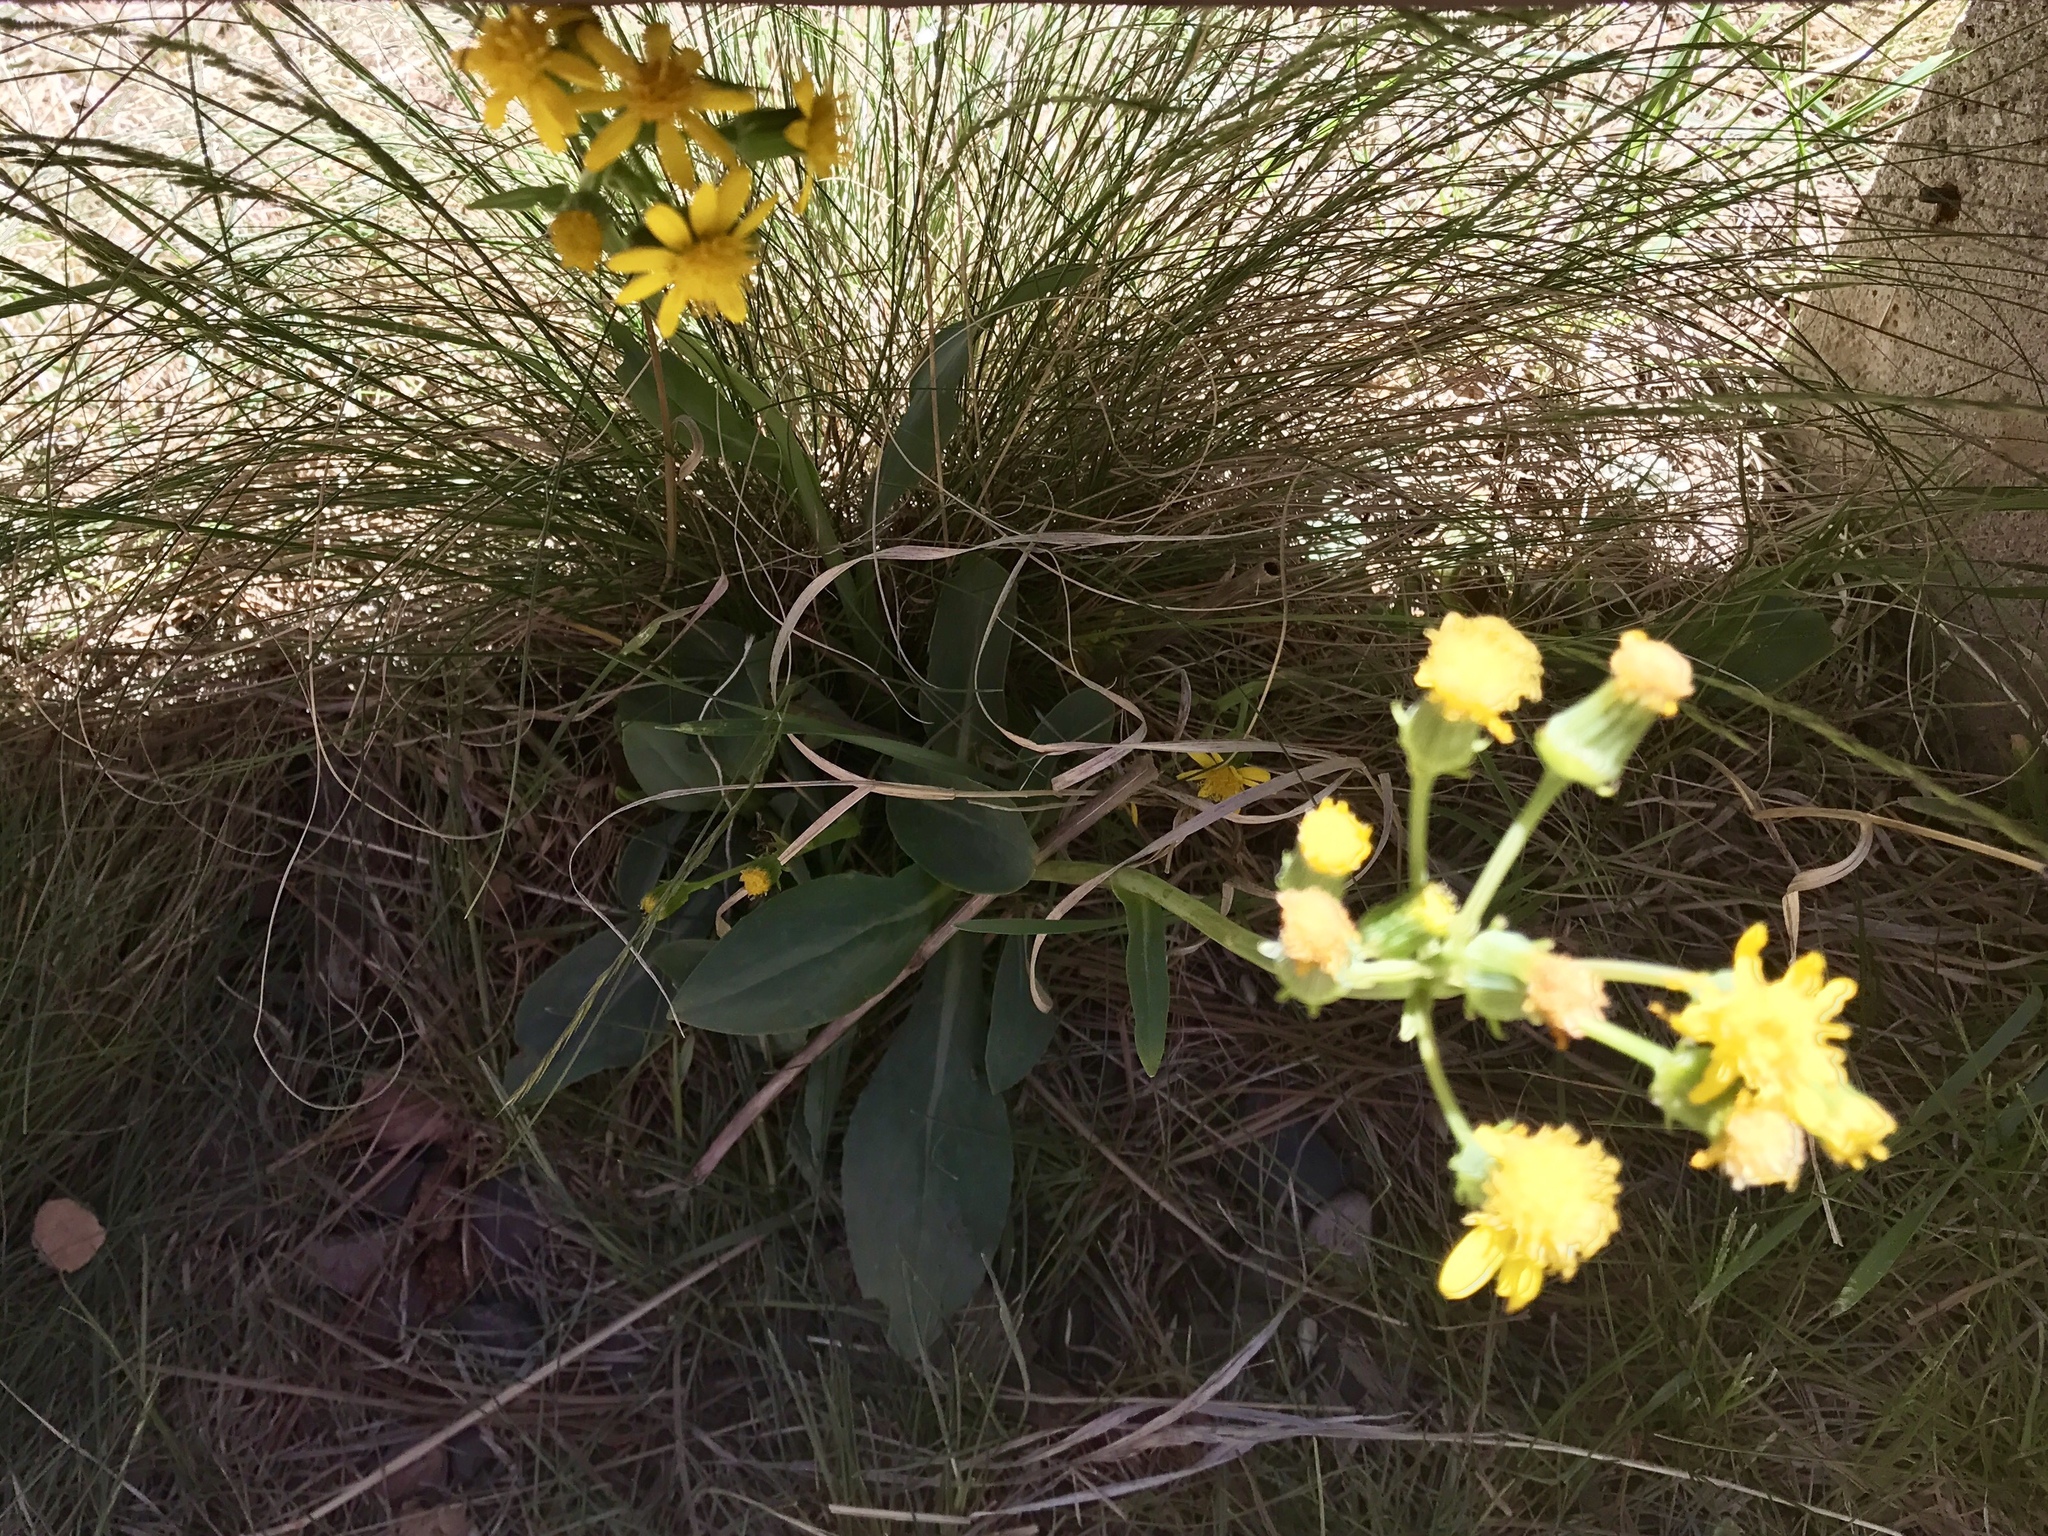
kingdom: Plantae
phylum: Tracheophyta
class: Magnoliopsida
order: Asterales
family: Asteraceae
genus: Senecio
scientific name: Senecio wootonii
